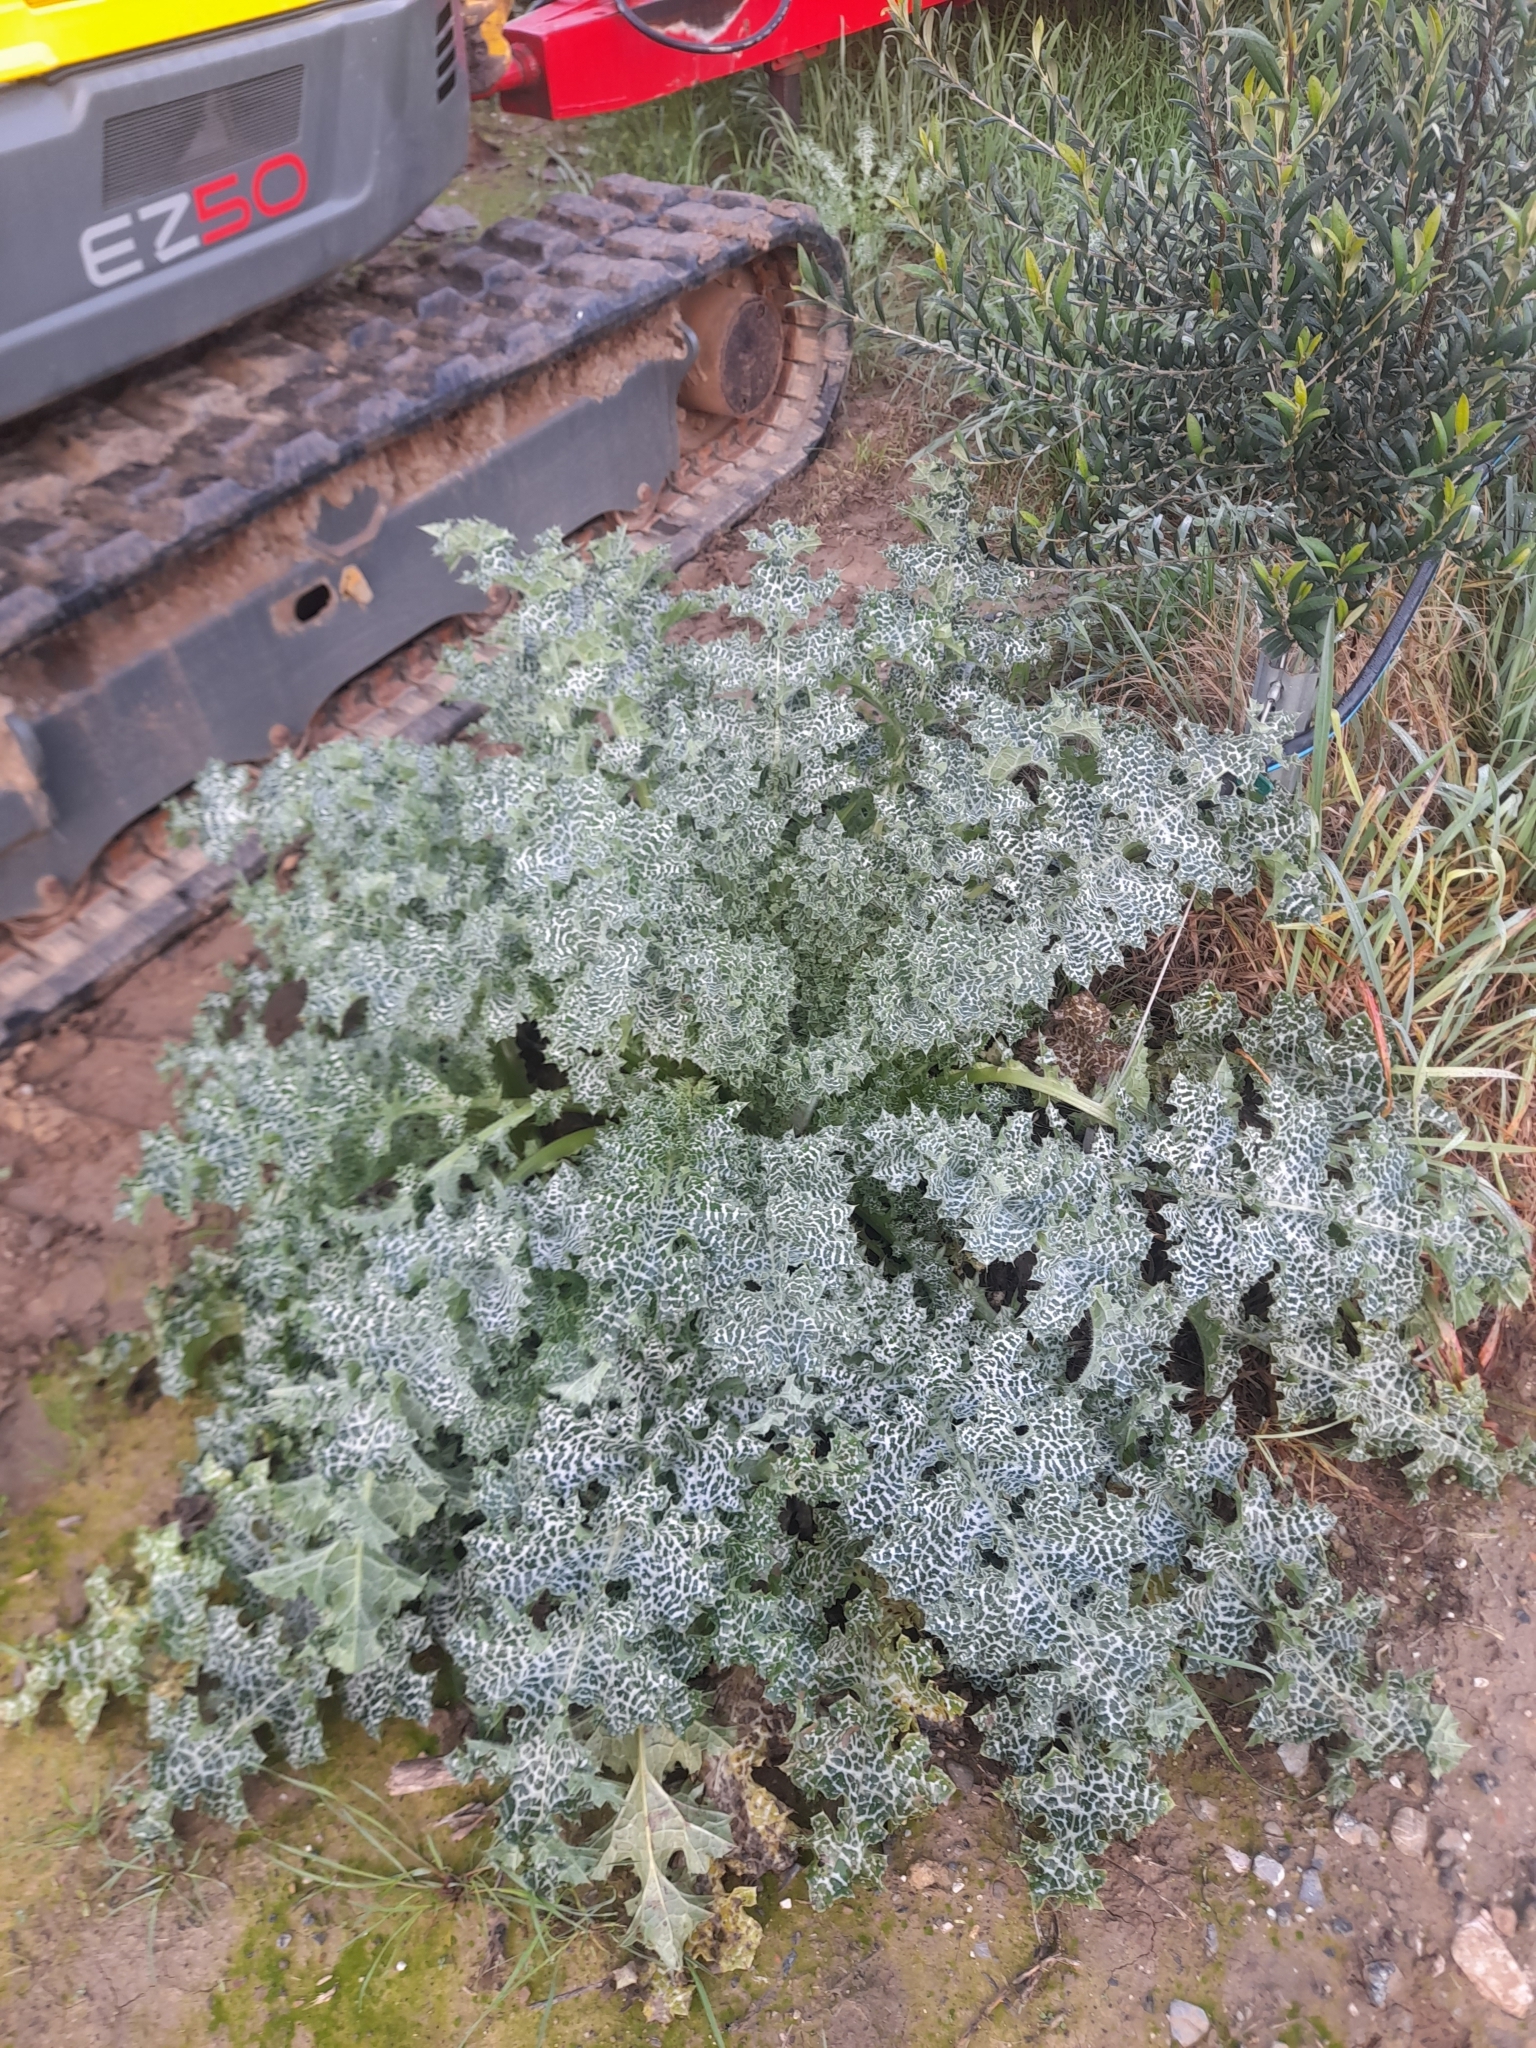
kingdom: Plantae
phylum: Tracheophyta
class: Magnoliopsida
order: Asterales
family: Asteraceae
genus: Silybum
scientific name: Silybum marianum
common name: Milk thistle
